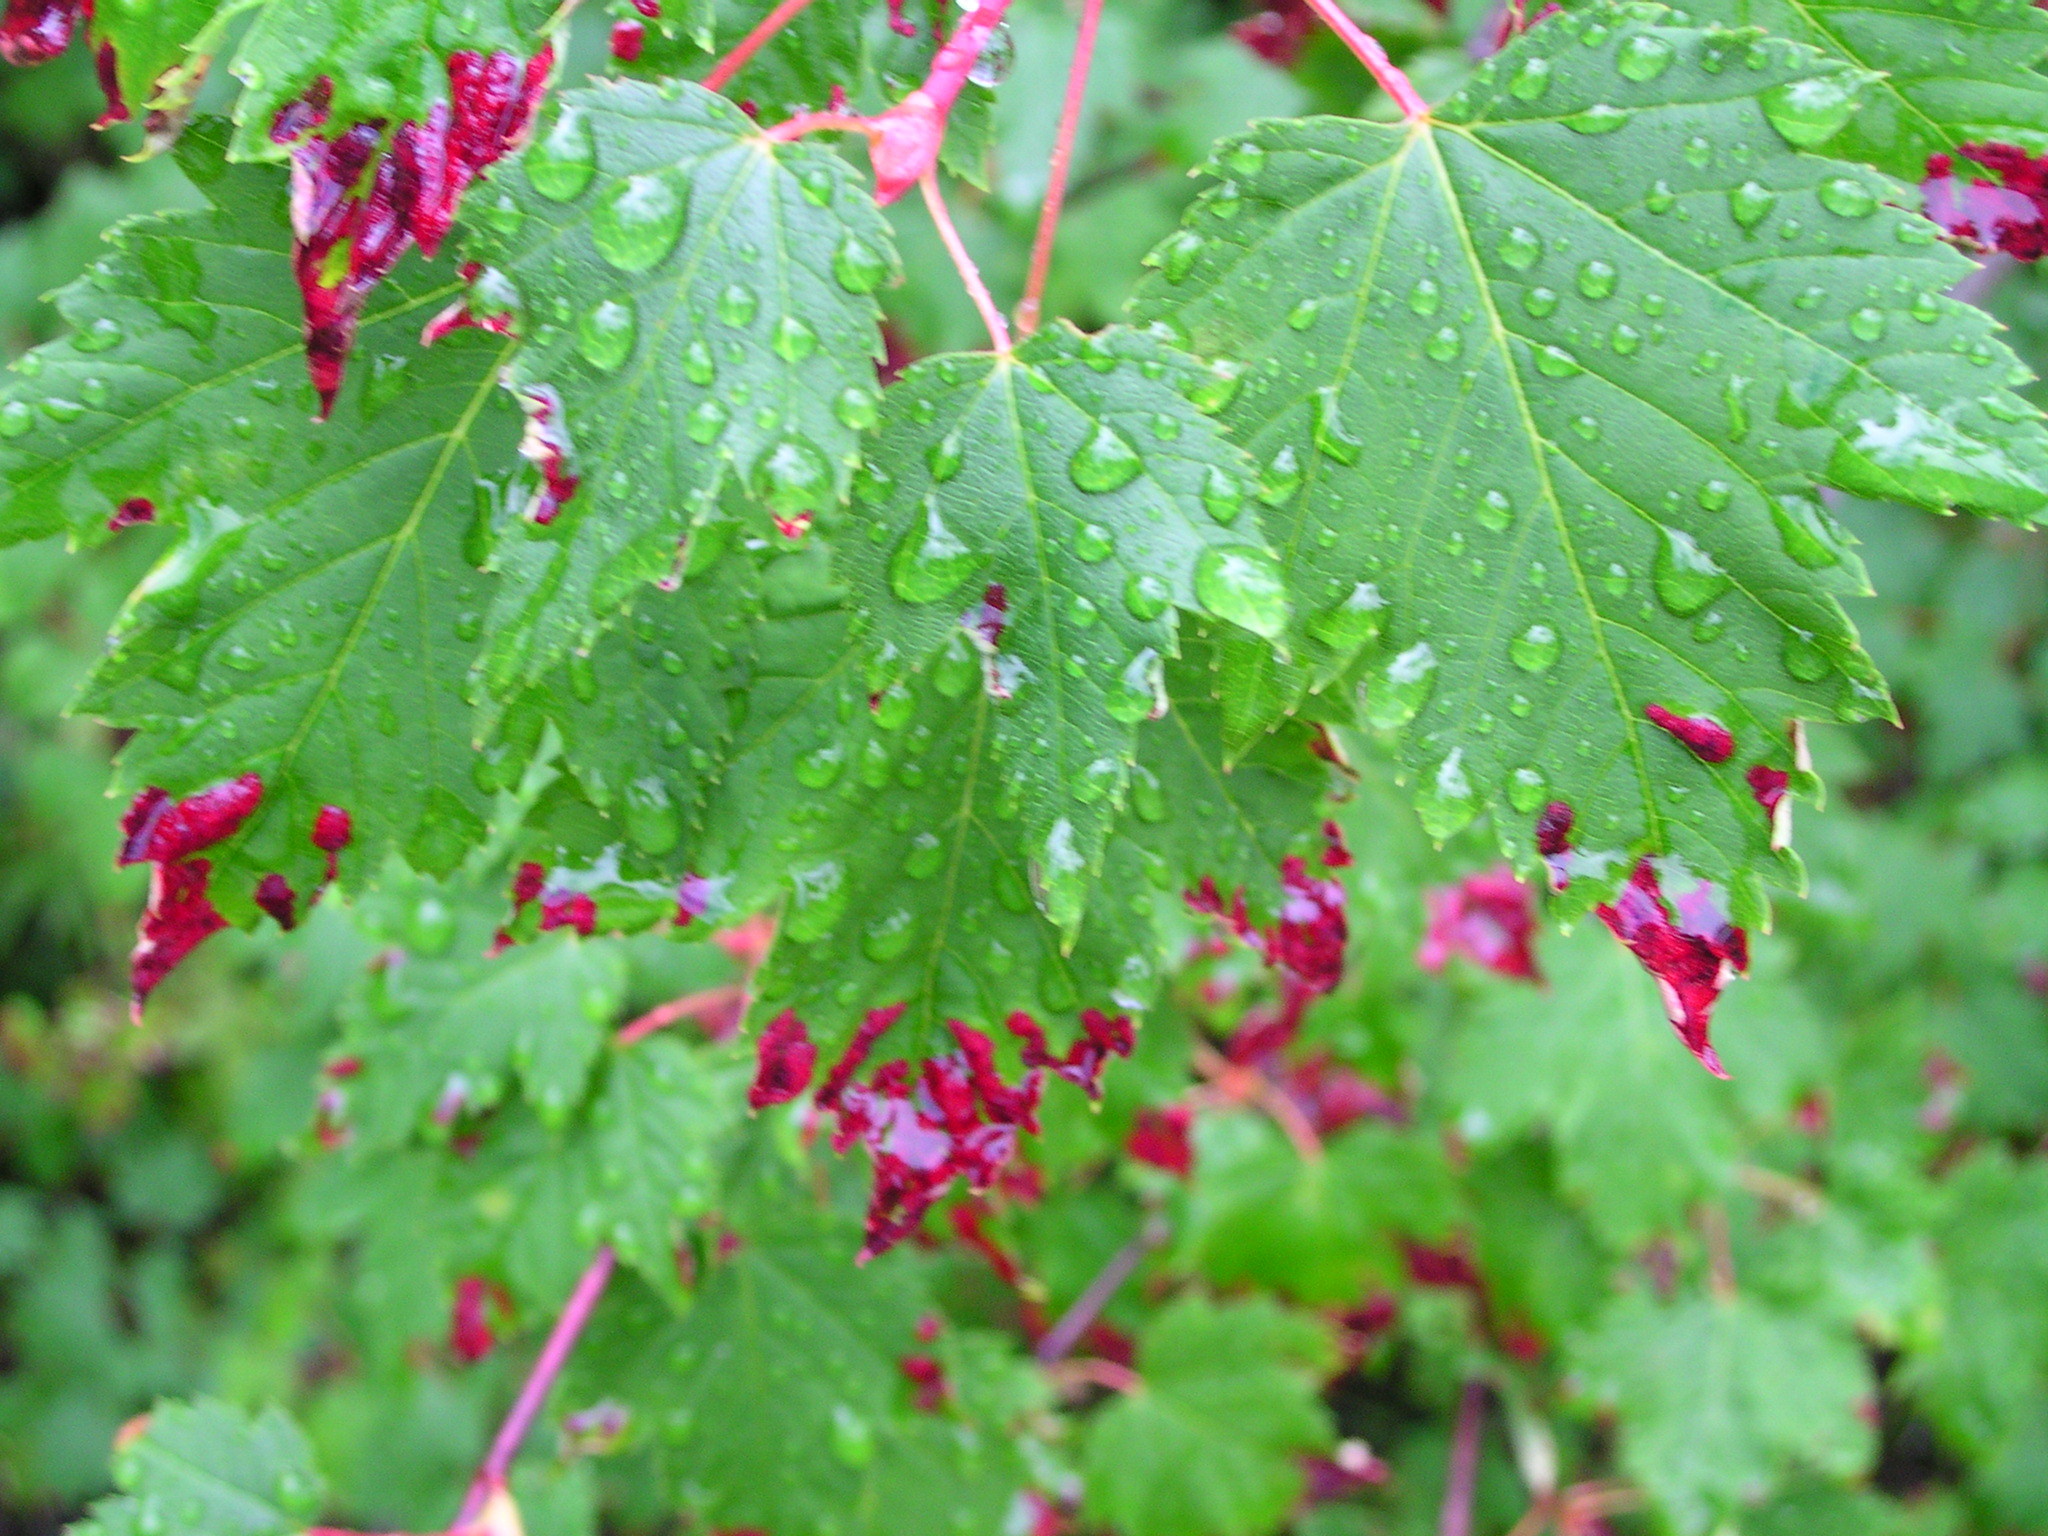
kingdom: Animalia
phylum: Arthropoda
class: Arachnida
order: Trombidiformes
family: Eriophyidae
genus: Aceria
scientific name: Aceria
